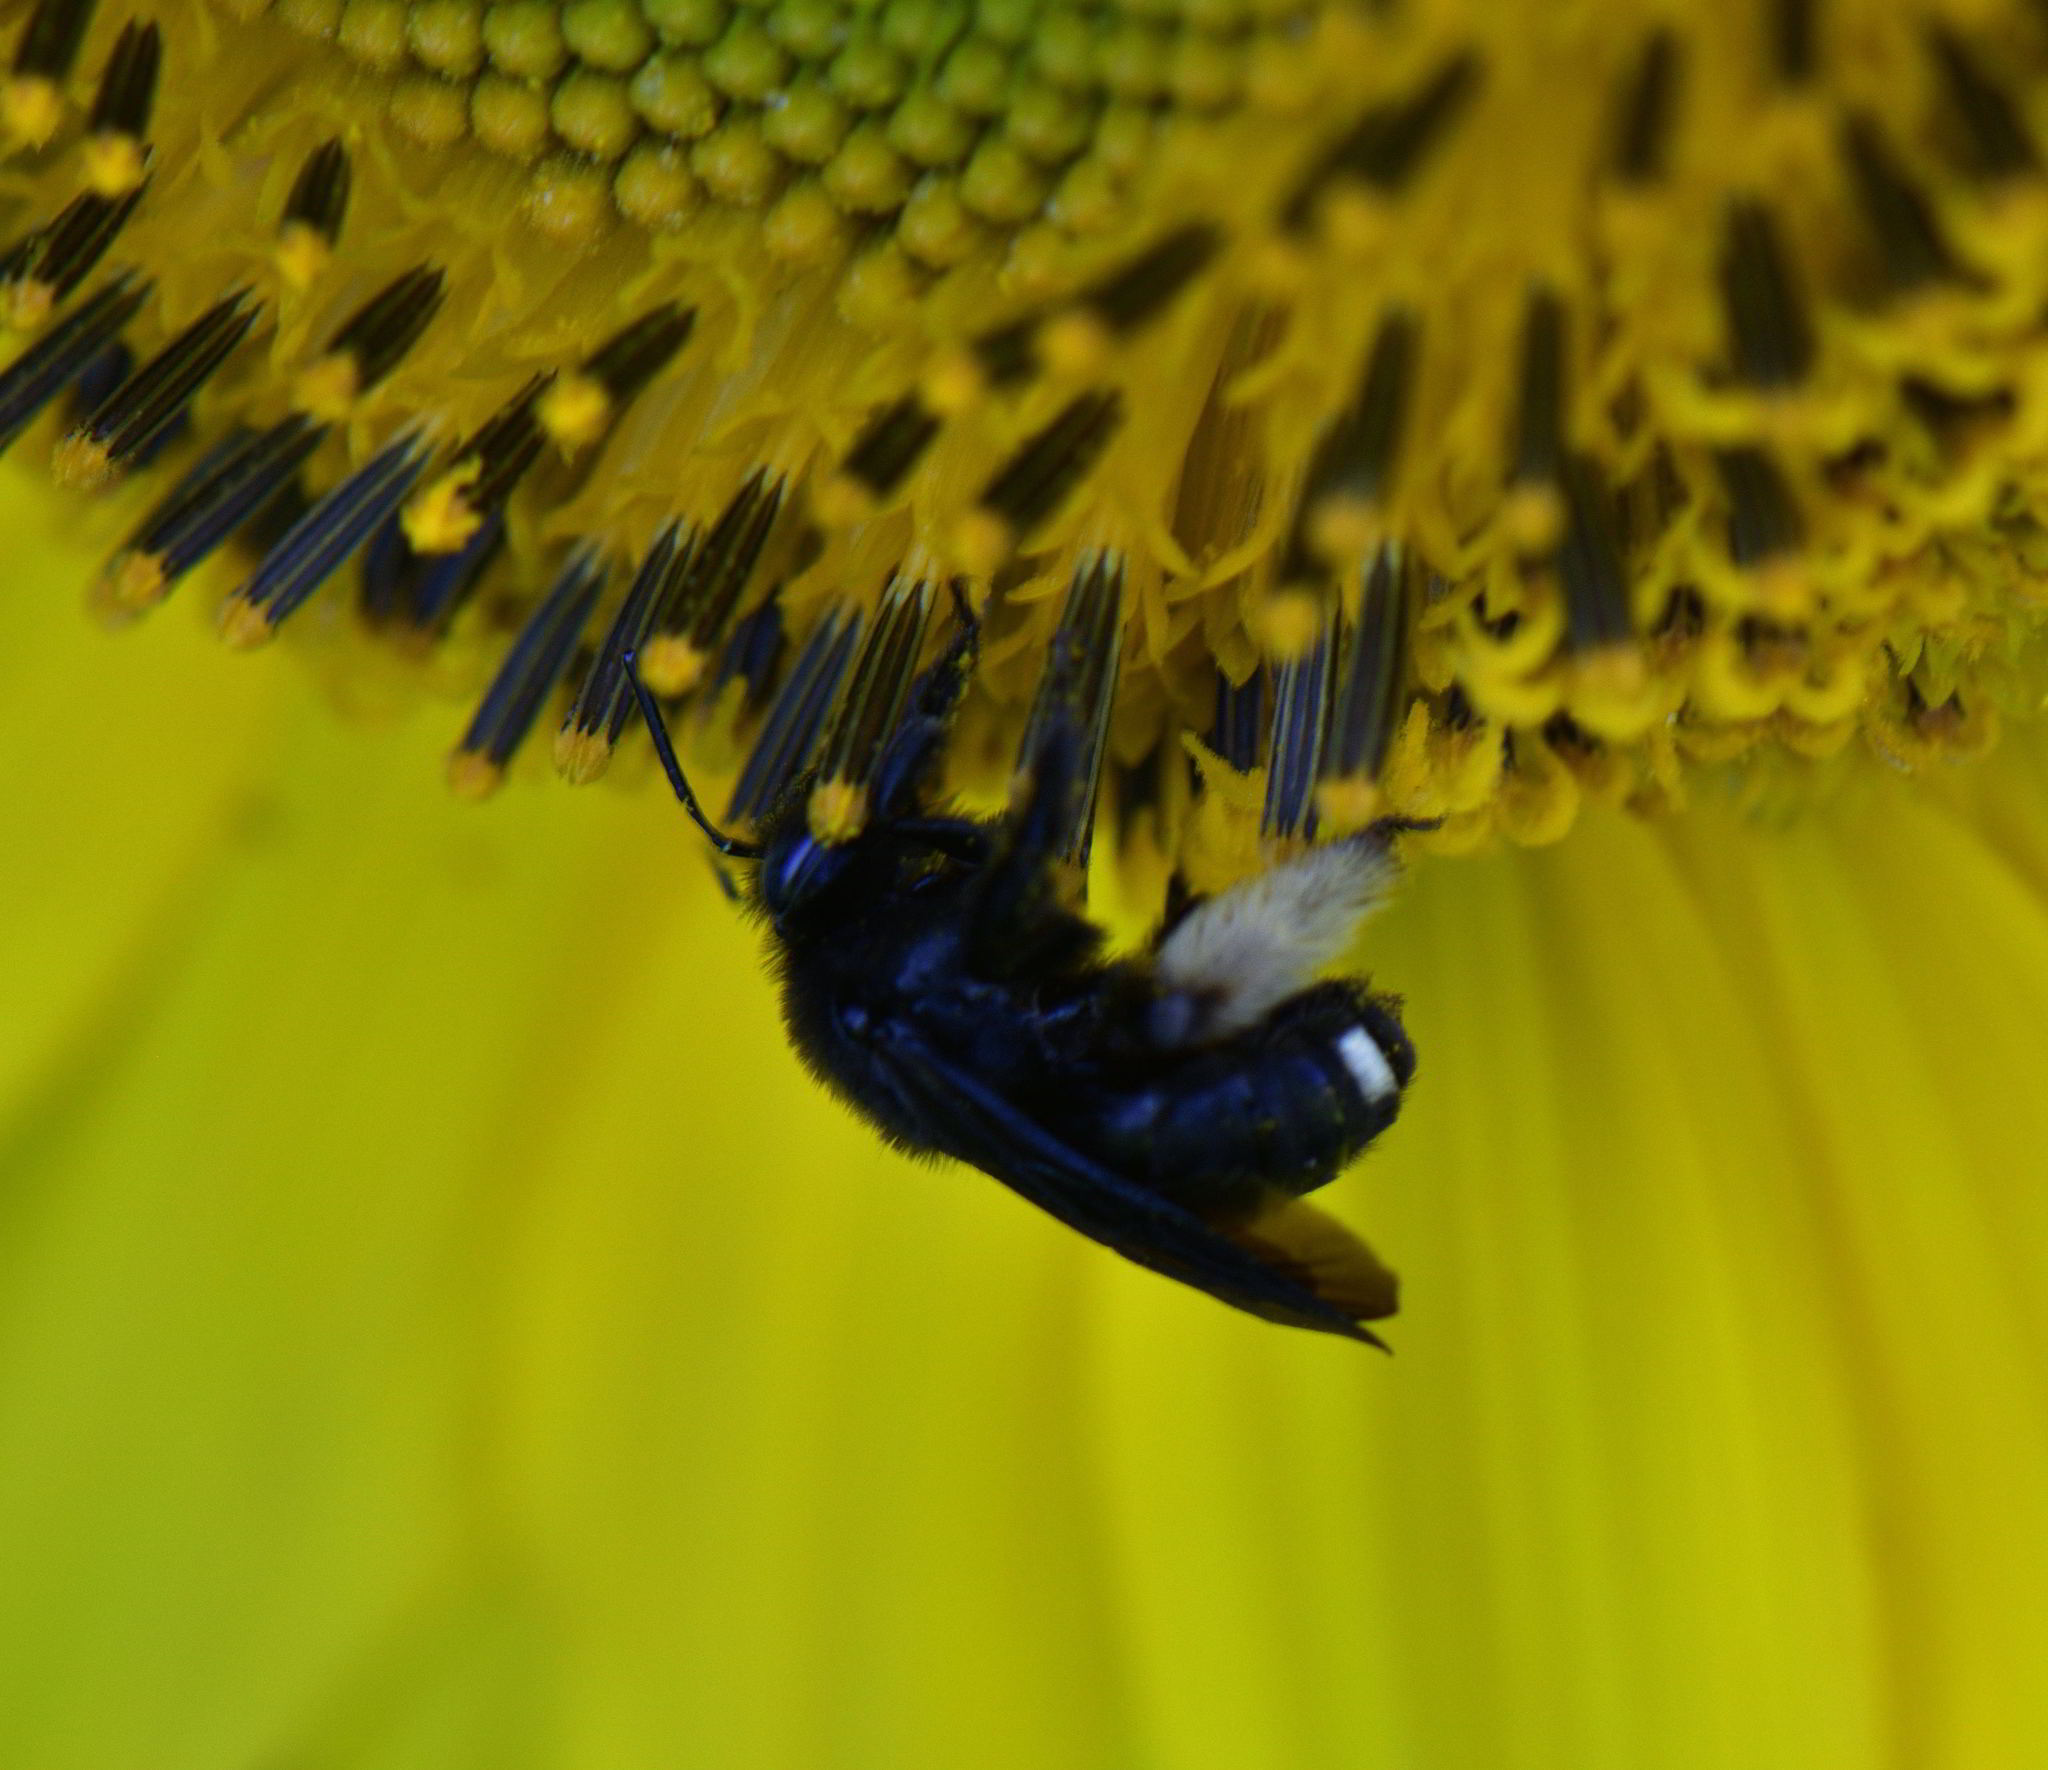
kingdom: Animalia
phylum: Arthropoda
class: Insecta
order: Hymenoptera
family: Apidae
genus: Melissodes
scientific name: Melissodes bimaculatus
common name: Two-spotted long-horned bee
